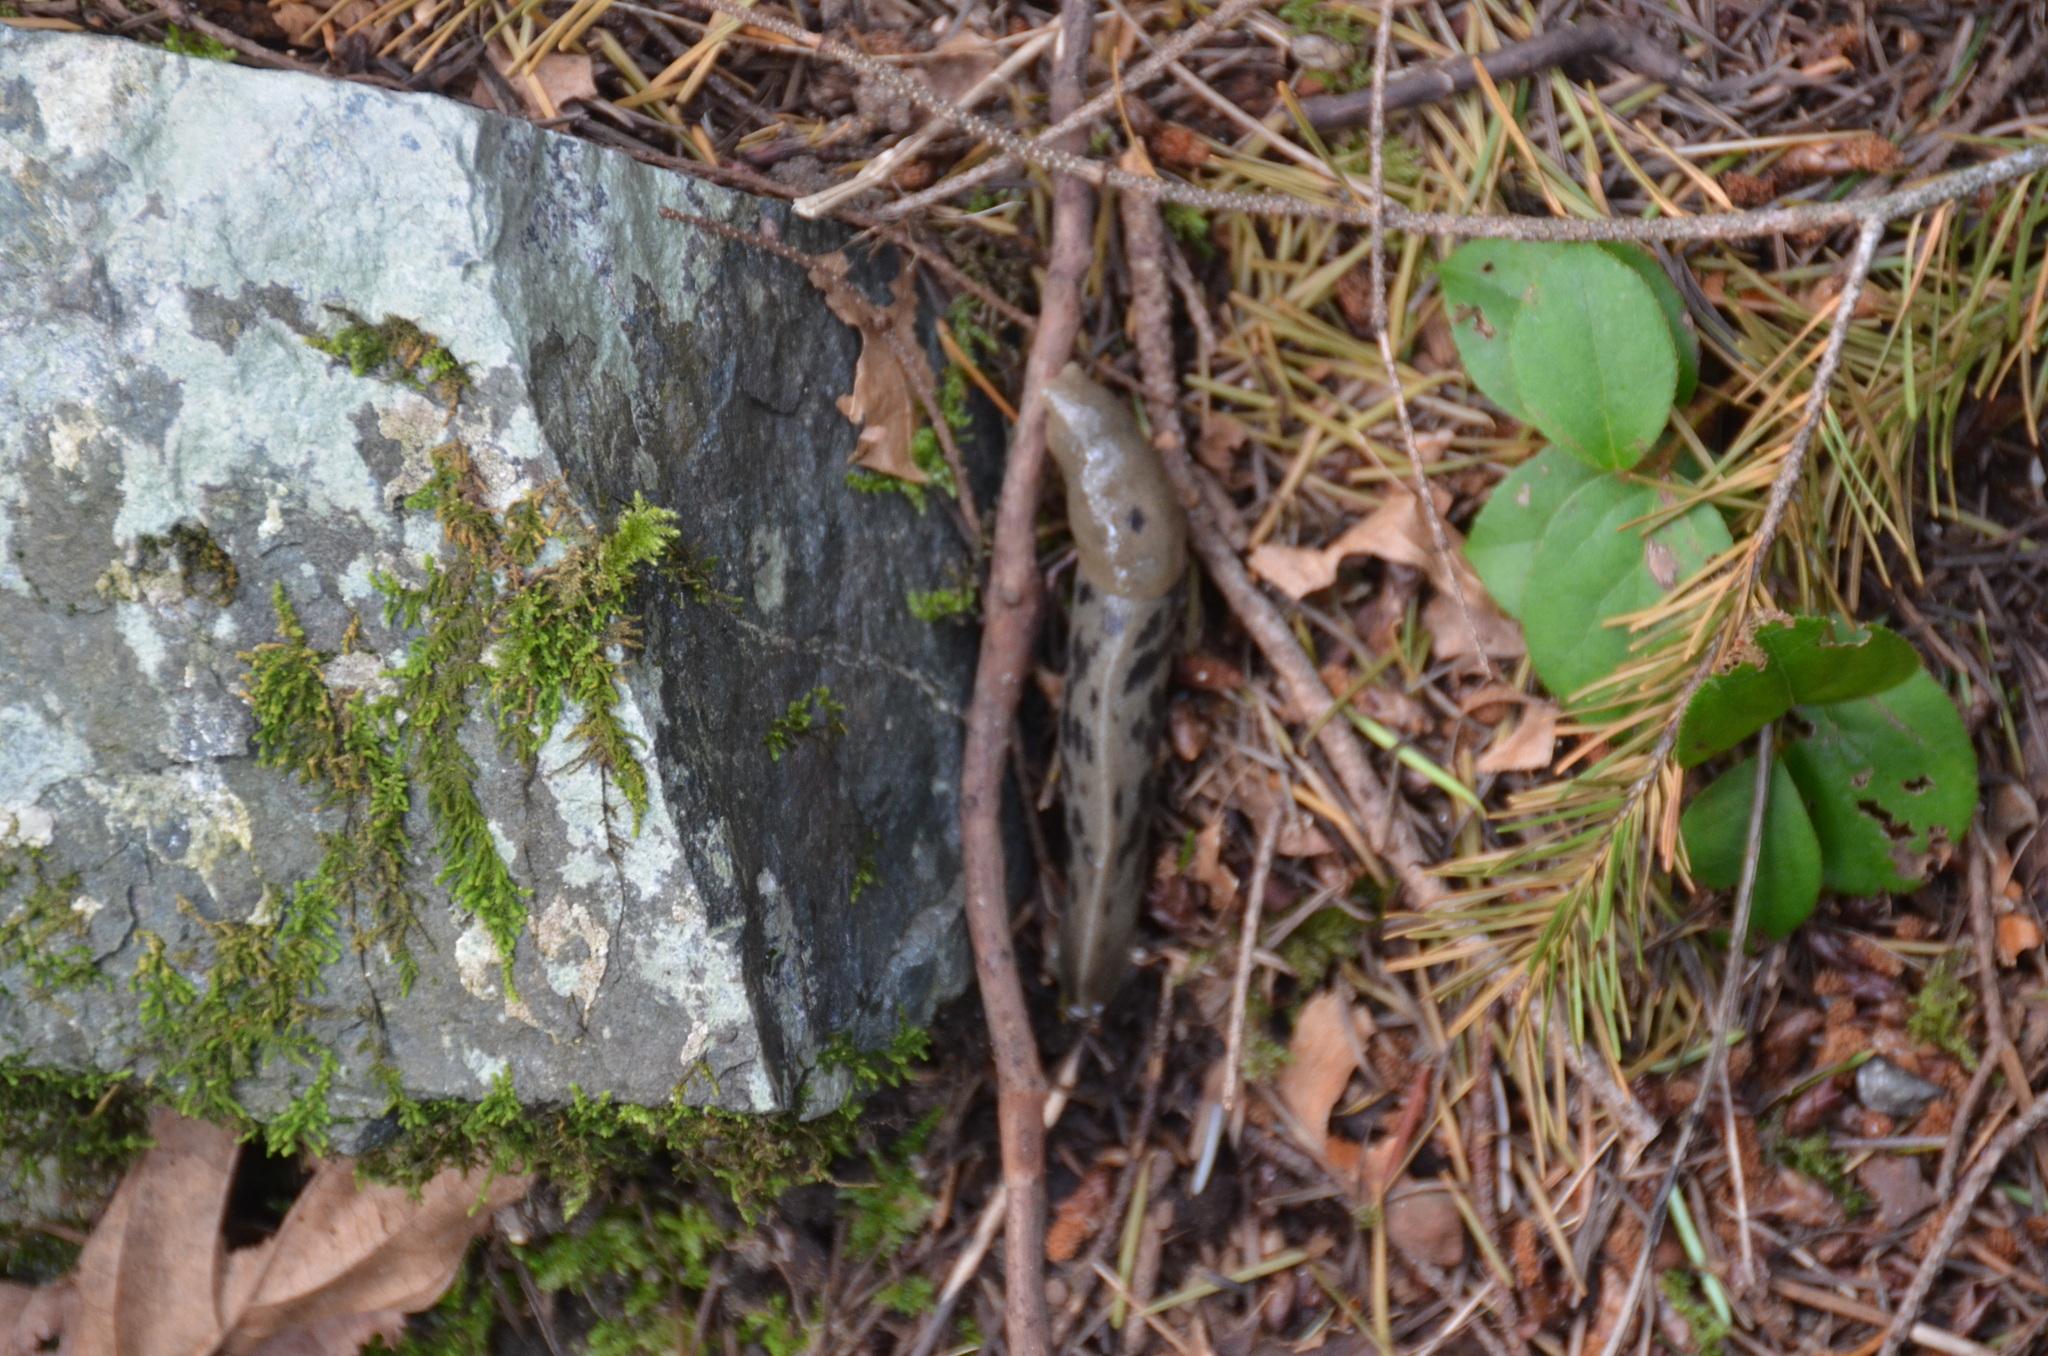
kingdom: Animalia
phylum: Mollusca
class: Gastropoda
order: Stylommatophora
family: Ariolimacidae
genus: Ariolimax
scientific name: Ariolimax columbianus
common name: Pacific banana slug
